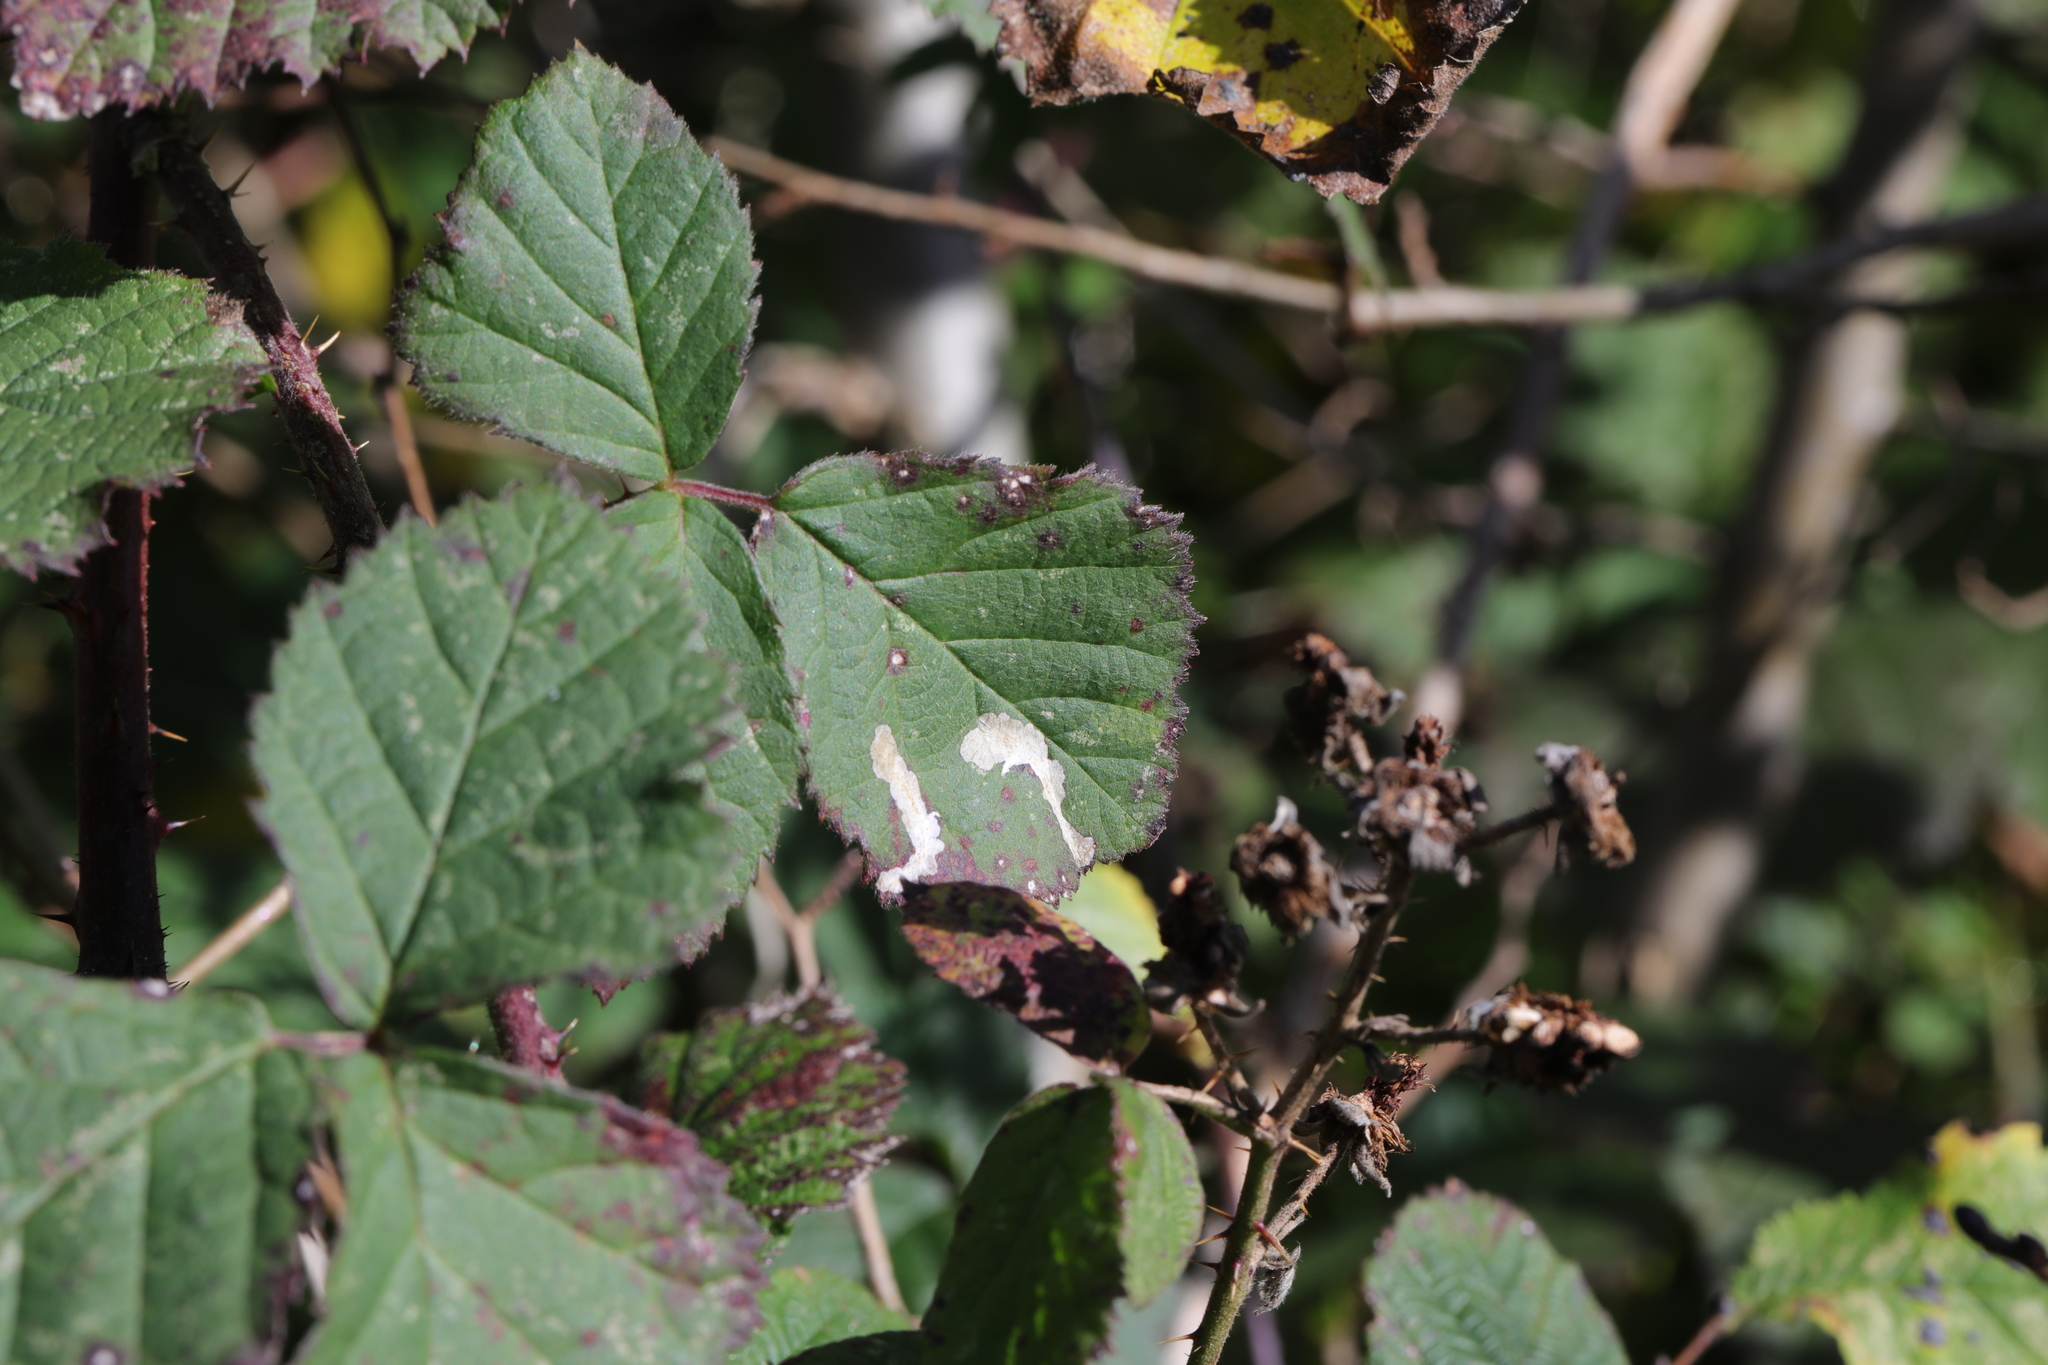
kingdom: Animalia
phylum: Arthropoda
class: Insecta
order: Lepidoptera
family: Tischeriidae
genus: Coptotriche
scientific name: Coptotriche marginea
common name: Bordered carl
